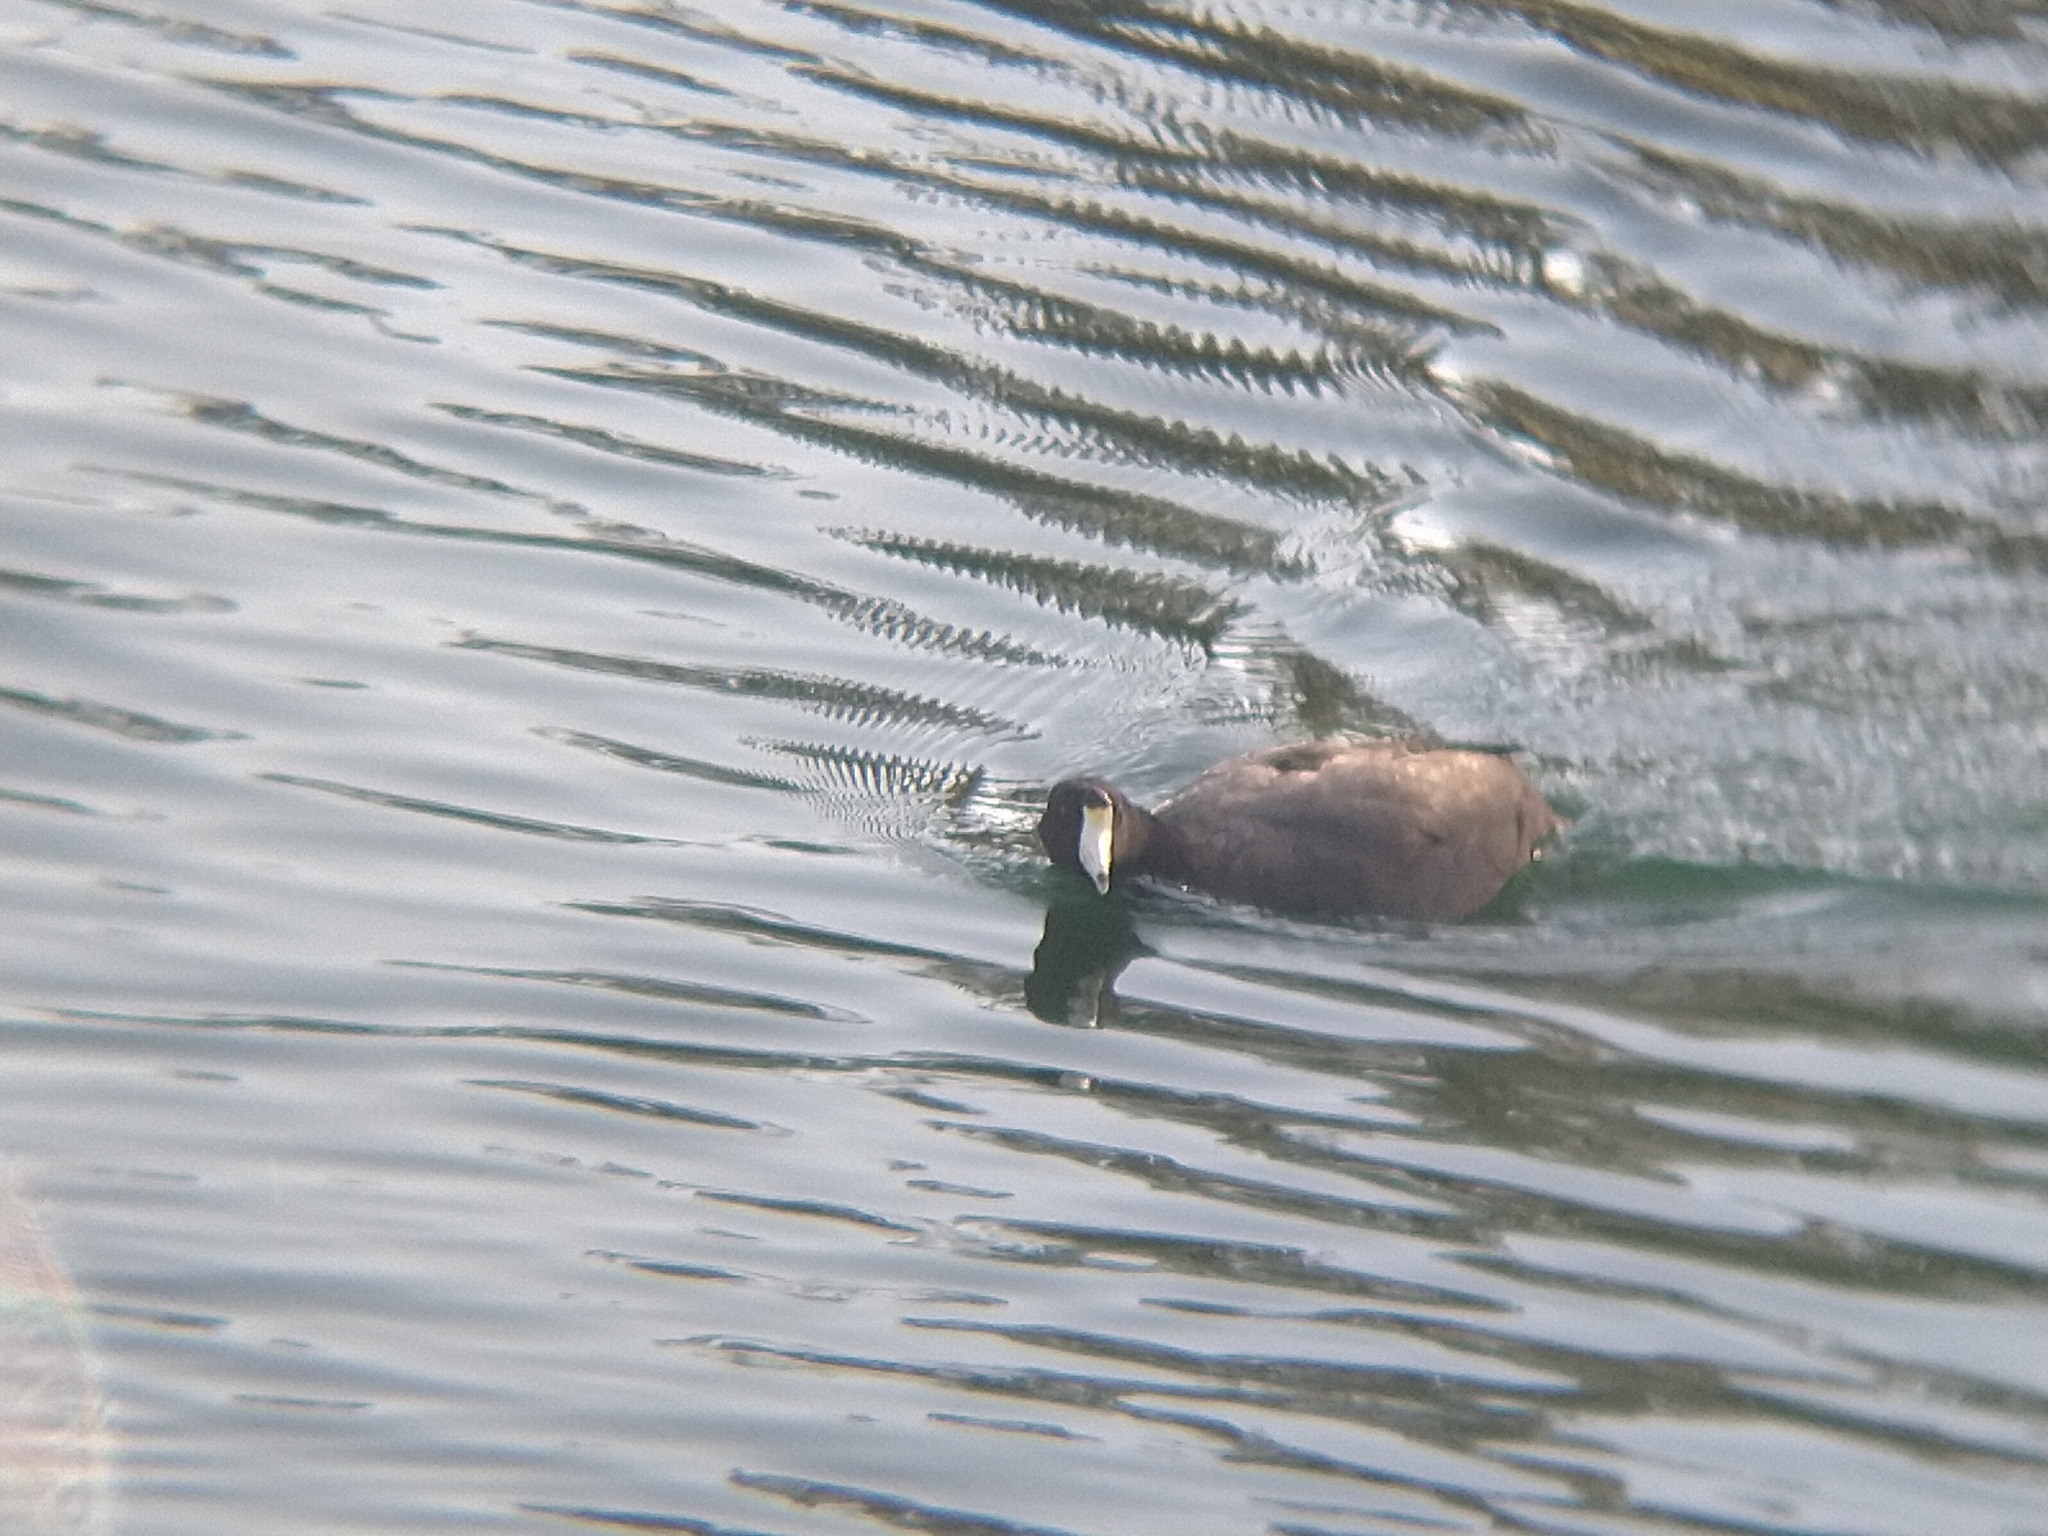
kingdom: Animalia
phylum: Chordata
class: Aves
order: Gruiformes
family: Rallidae
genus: Fulica
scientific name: Fulica americana
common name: American coot
